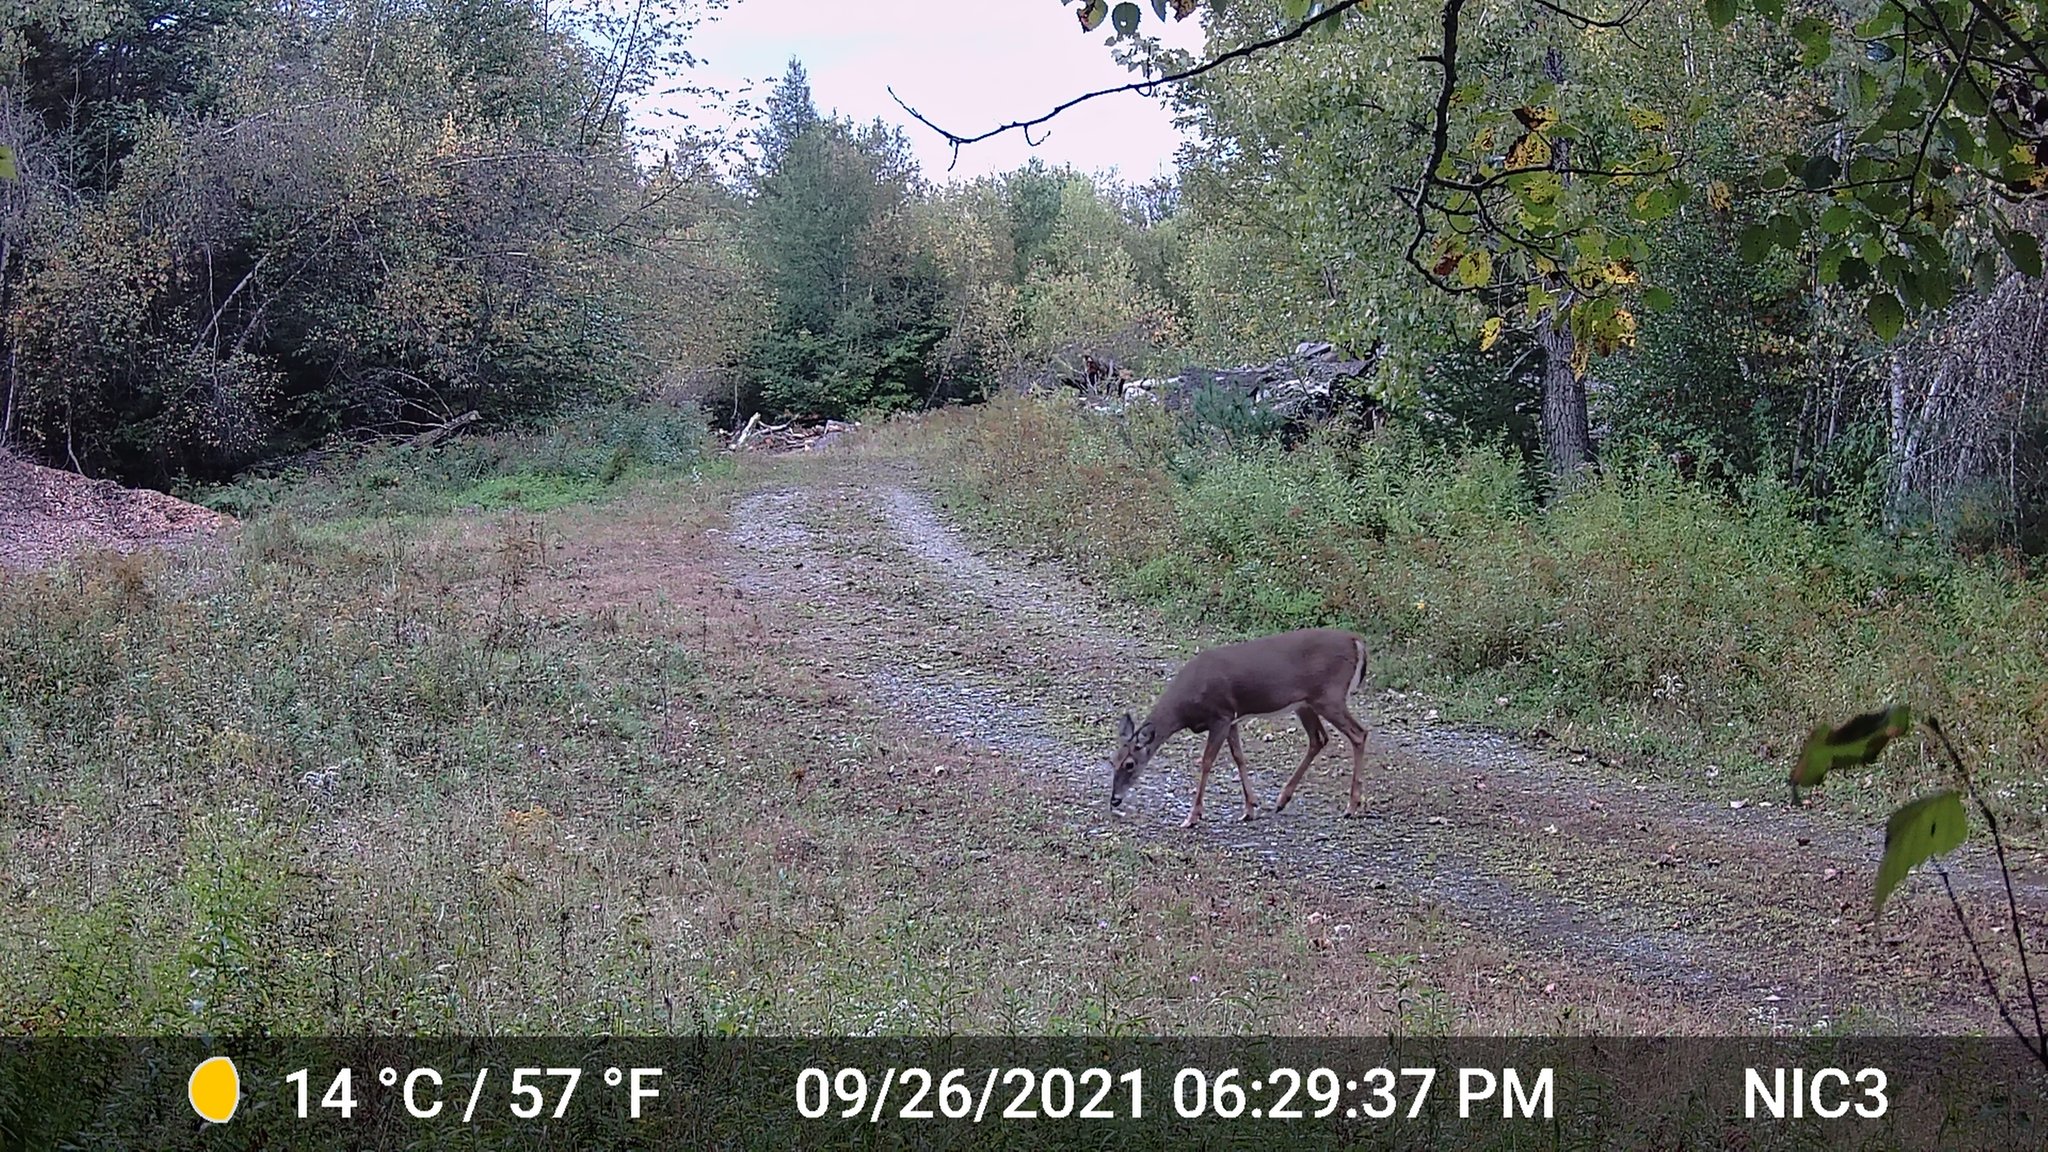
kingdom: Animalia
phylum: Chordata
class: Mammalia
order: Artiodactyla
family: Cervidae
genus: Odocoileus
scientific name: Odocoileus virginianus
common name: White-tailed deer
